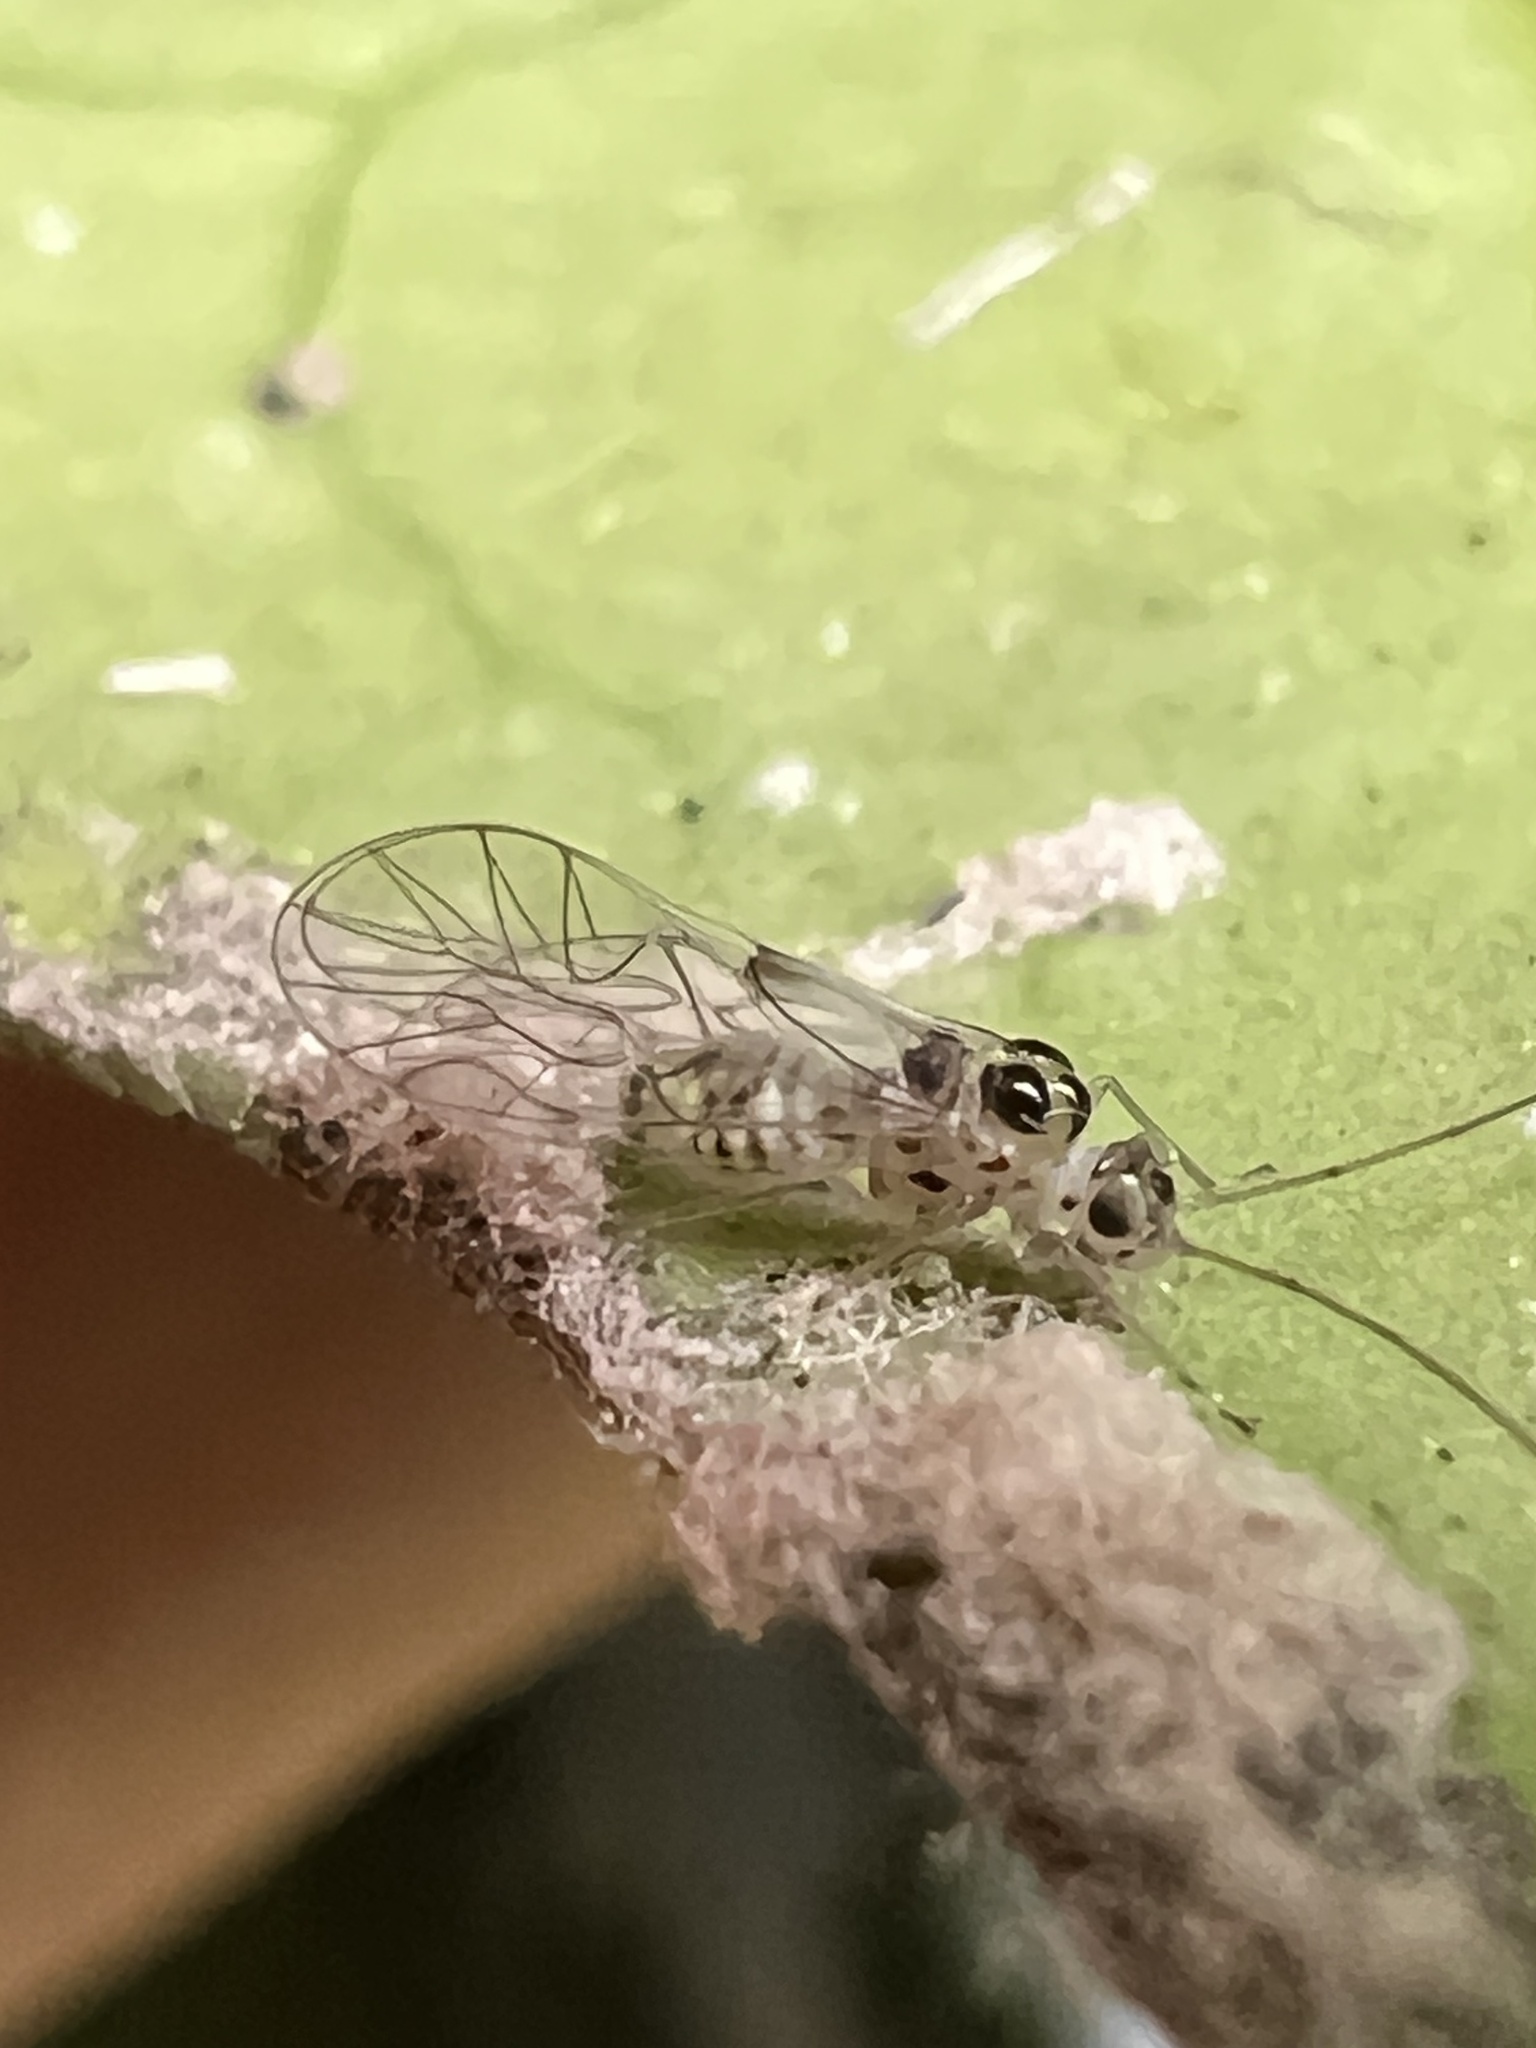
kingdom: Animalia
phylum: Arthropoda
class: Insecta
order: Psocodea
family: Dasydemellidae
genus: Teliapsocus
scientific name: Teliapsocus conterminus
